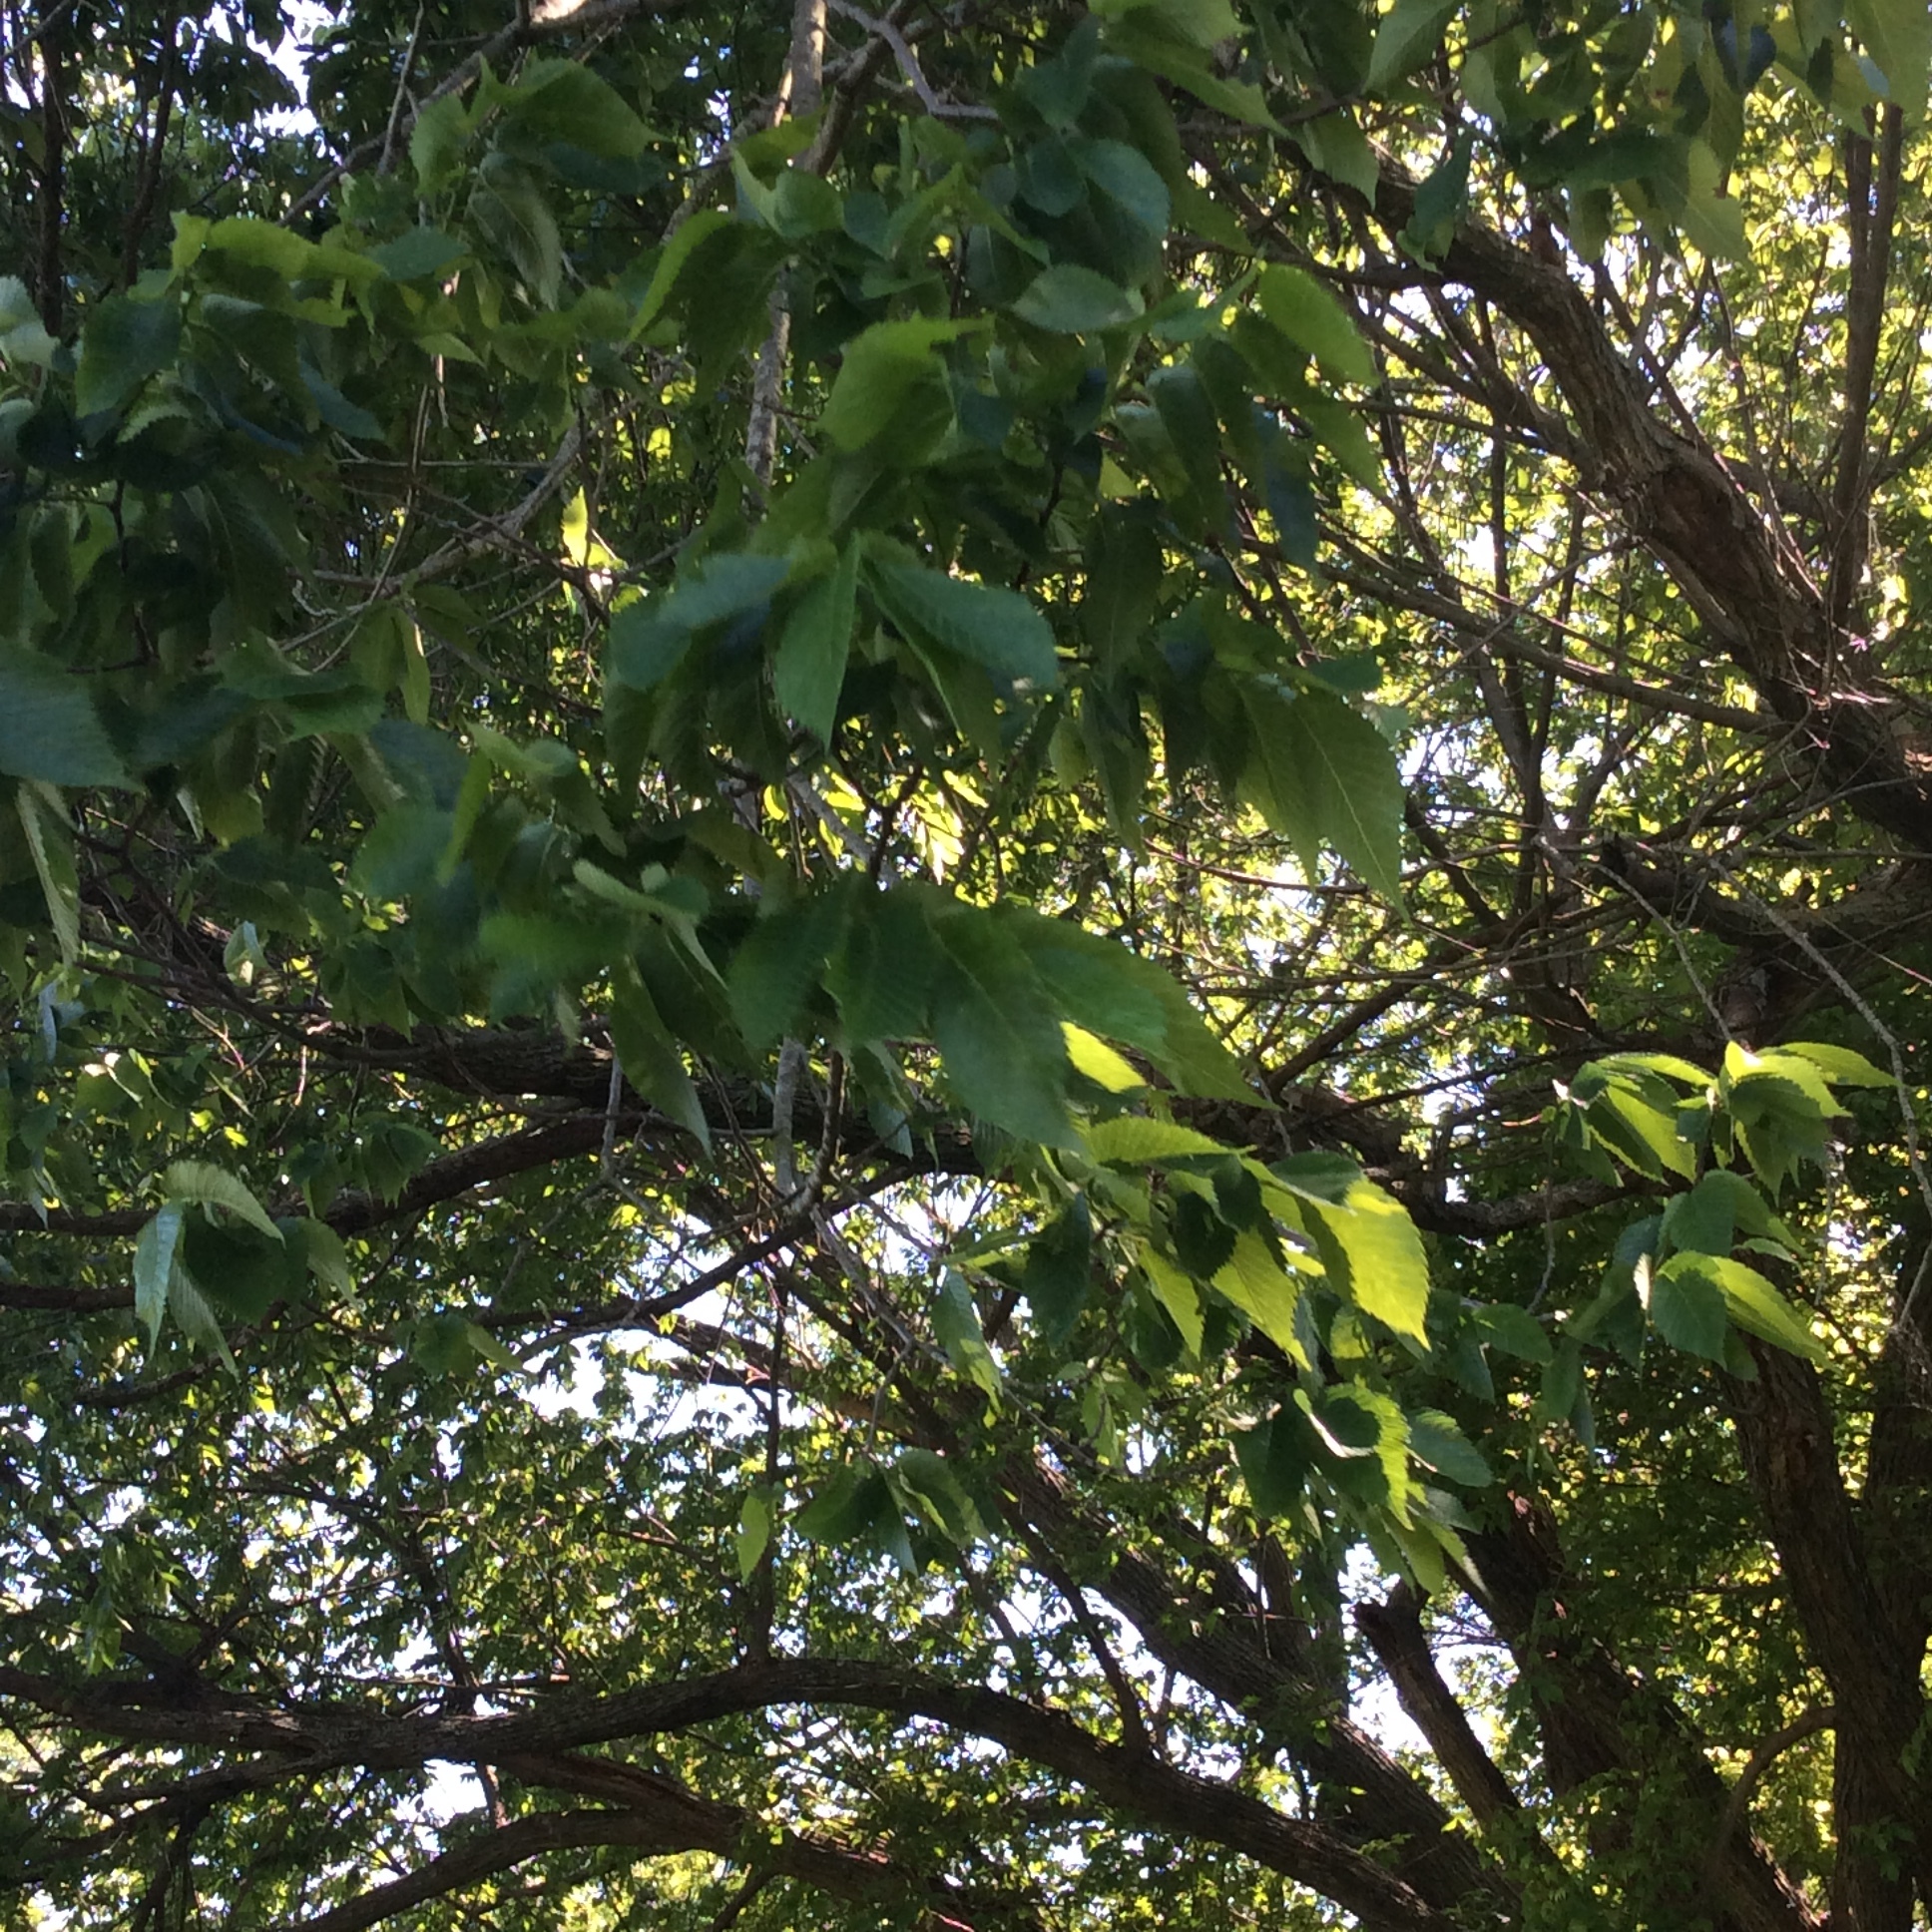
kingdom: Plantae
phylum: Tracheophyta
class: Magnoliopsida
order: Rosales
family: Ulmaceae
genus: Ulmus
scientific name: Ulmus americana
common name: American elm
